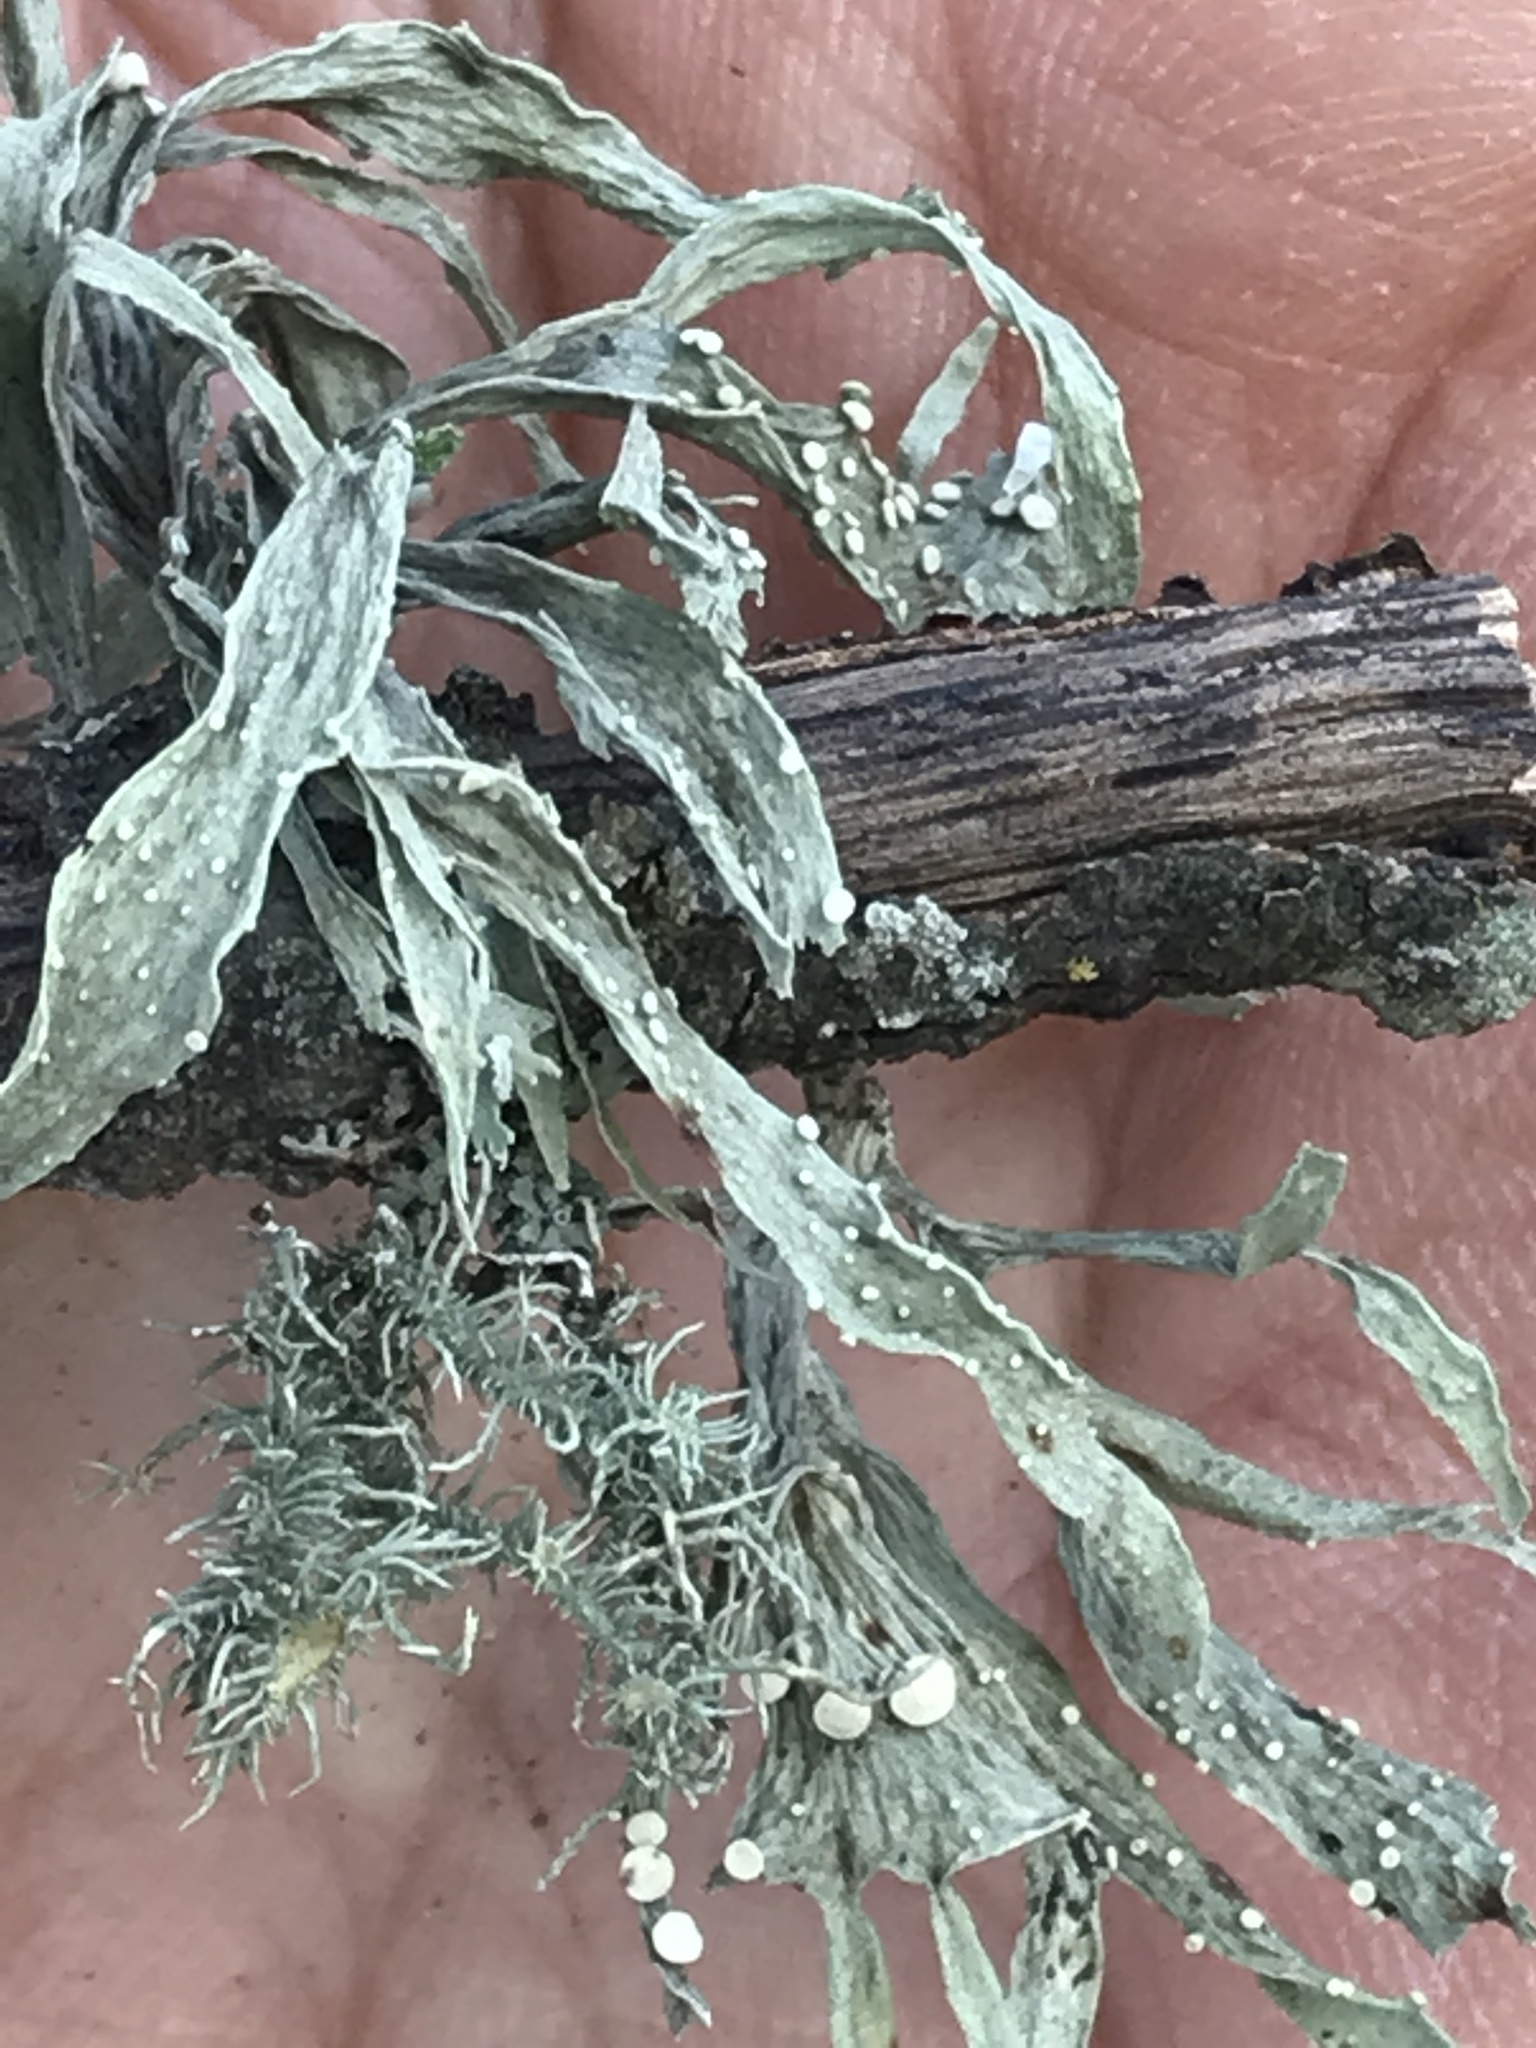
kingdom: Fungi
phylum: Ascomycota
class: Lecanoromycetes
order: Lecanorales
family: Ramalinaceae
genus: Ramalina
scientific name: Ramalina celastri
